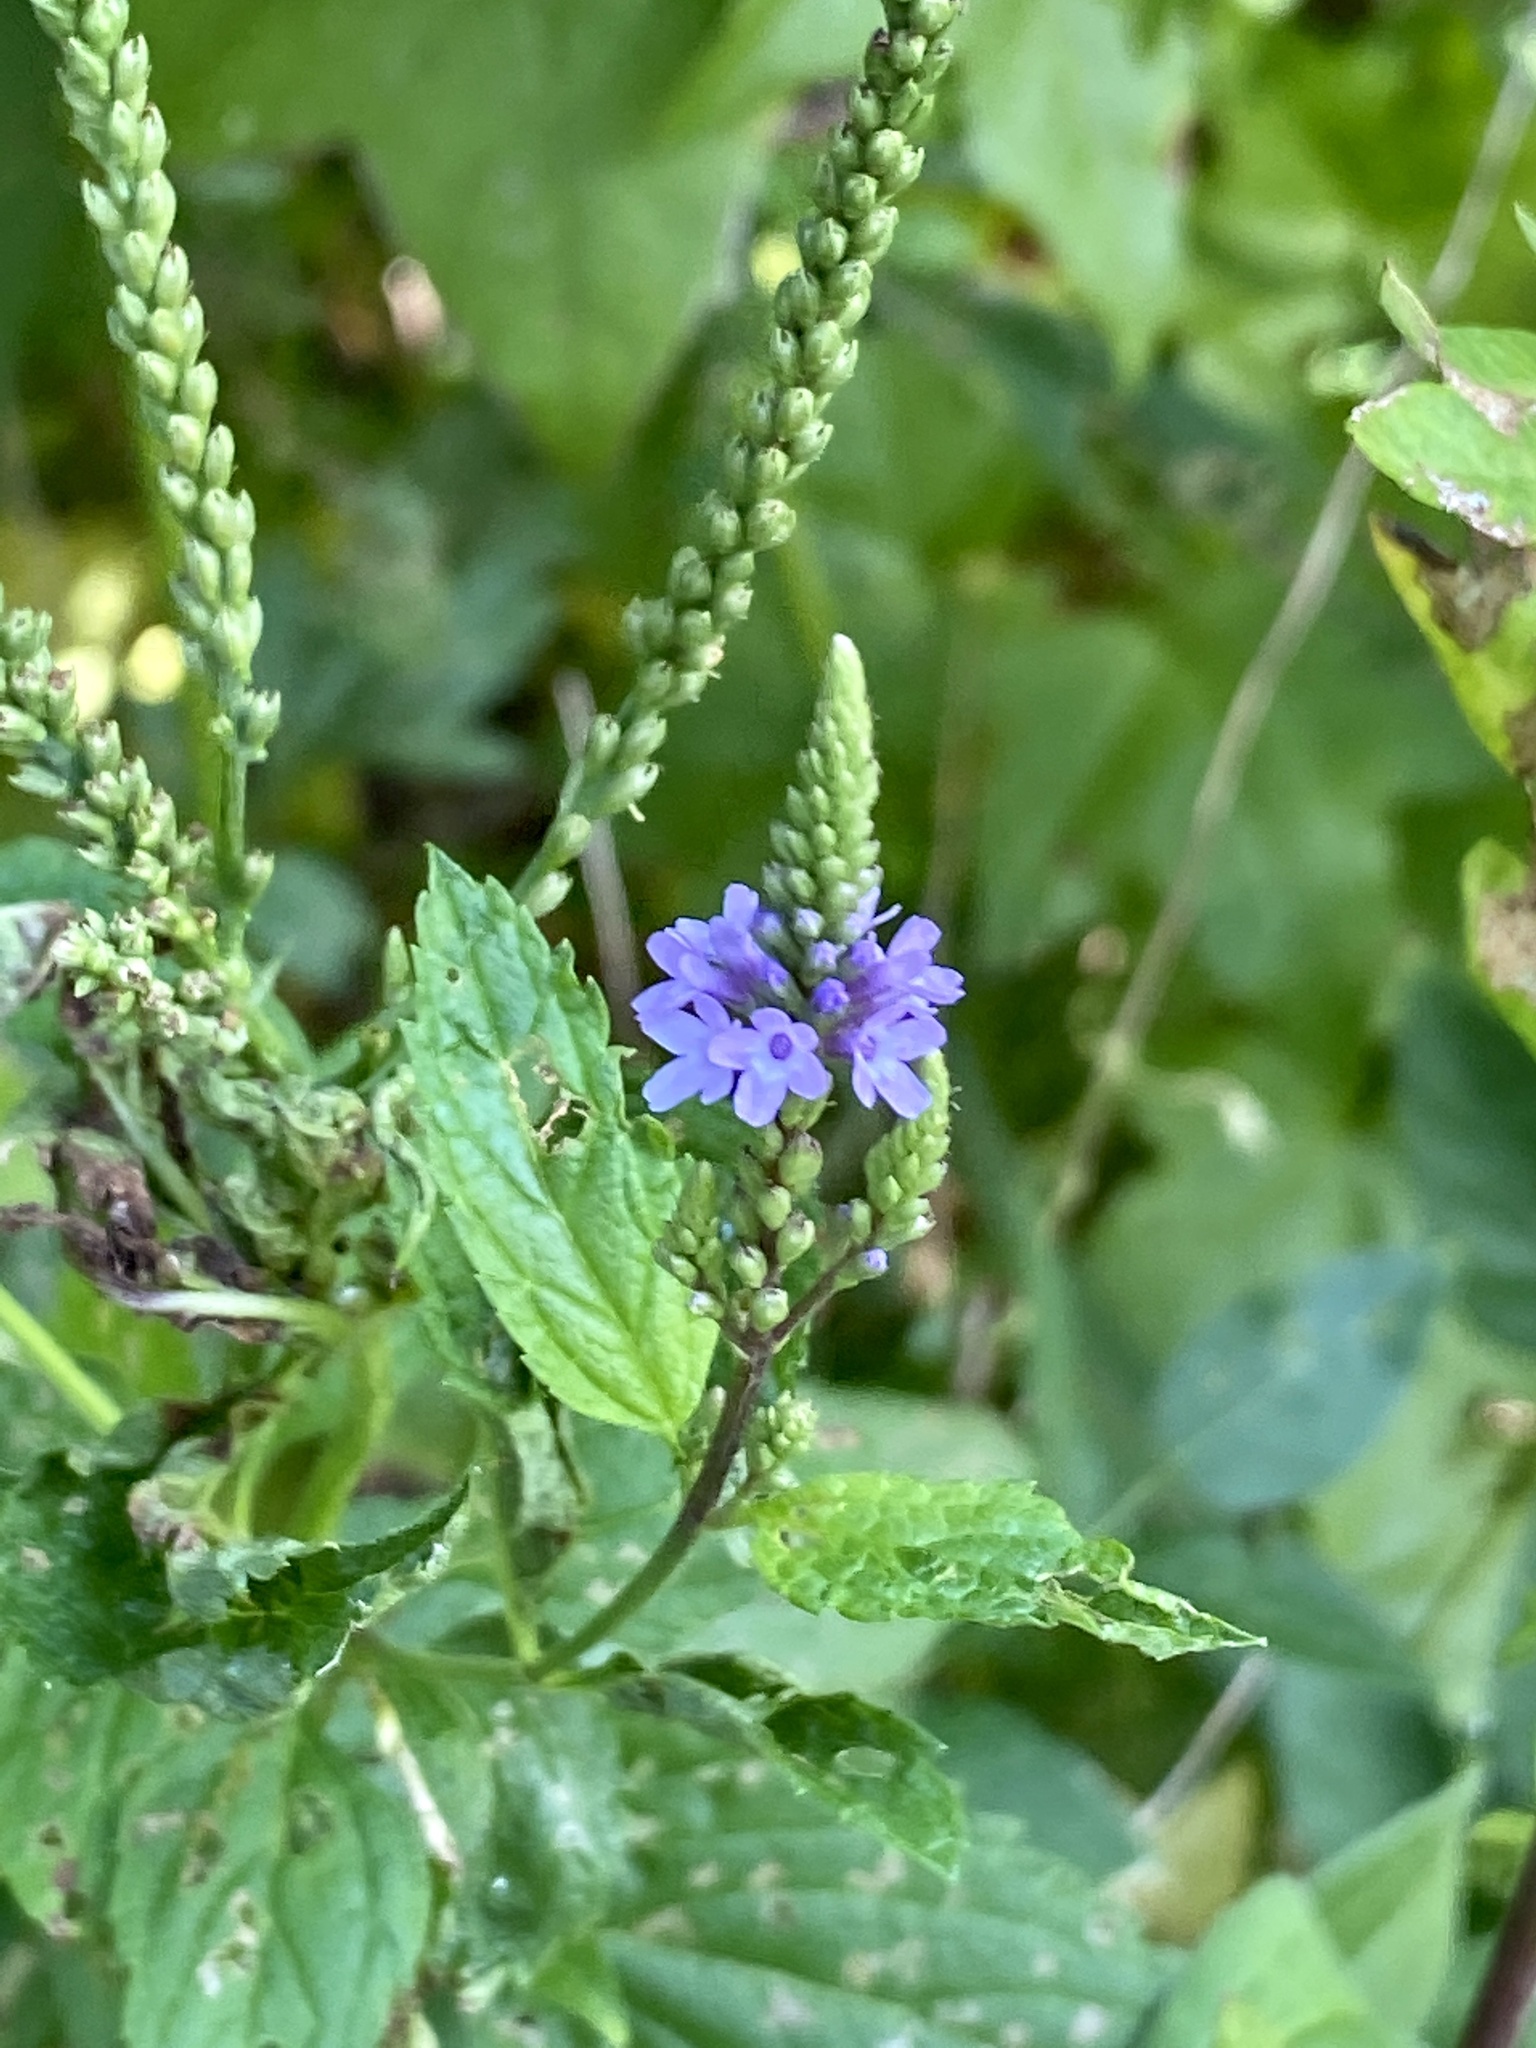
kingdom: Plantae
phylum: Tracheophyta
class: Magnoliopsida
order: Lamiales
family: Verbenaceae
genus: Verbena
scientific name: Verbena hastata
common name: American blue vervain
